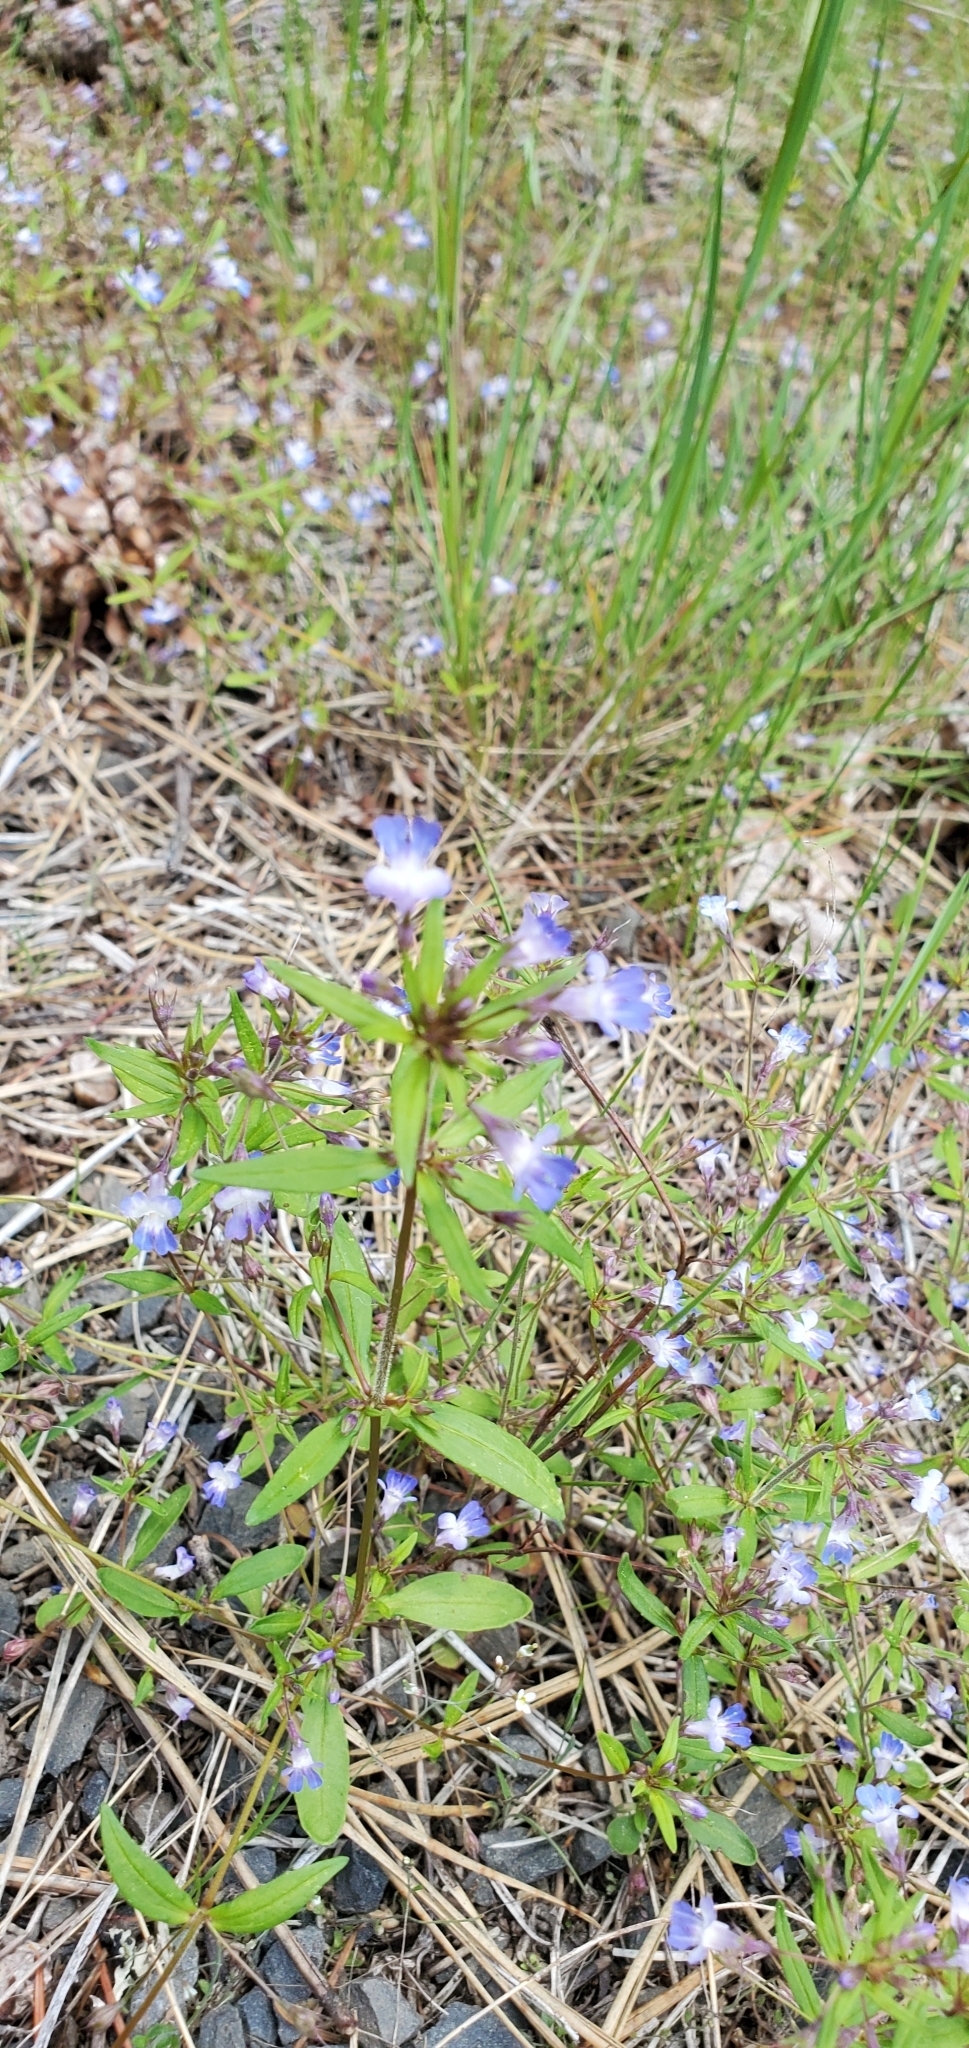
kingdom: Plantae
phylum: Tracheophyta
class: Magnoliopsida
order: Lamiales
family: Plantaginaceae
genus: Collinsia
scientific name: Collinsia parviflora
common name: Blue-lips
